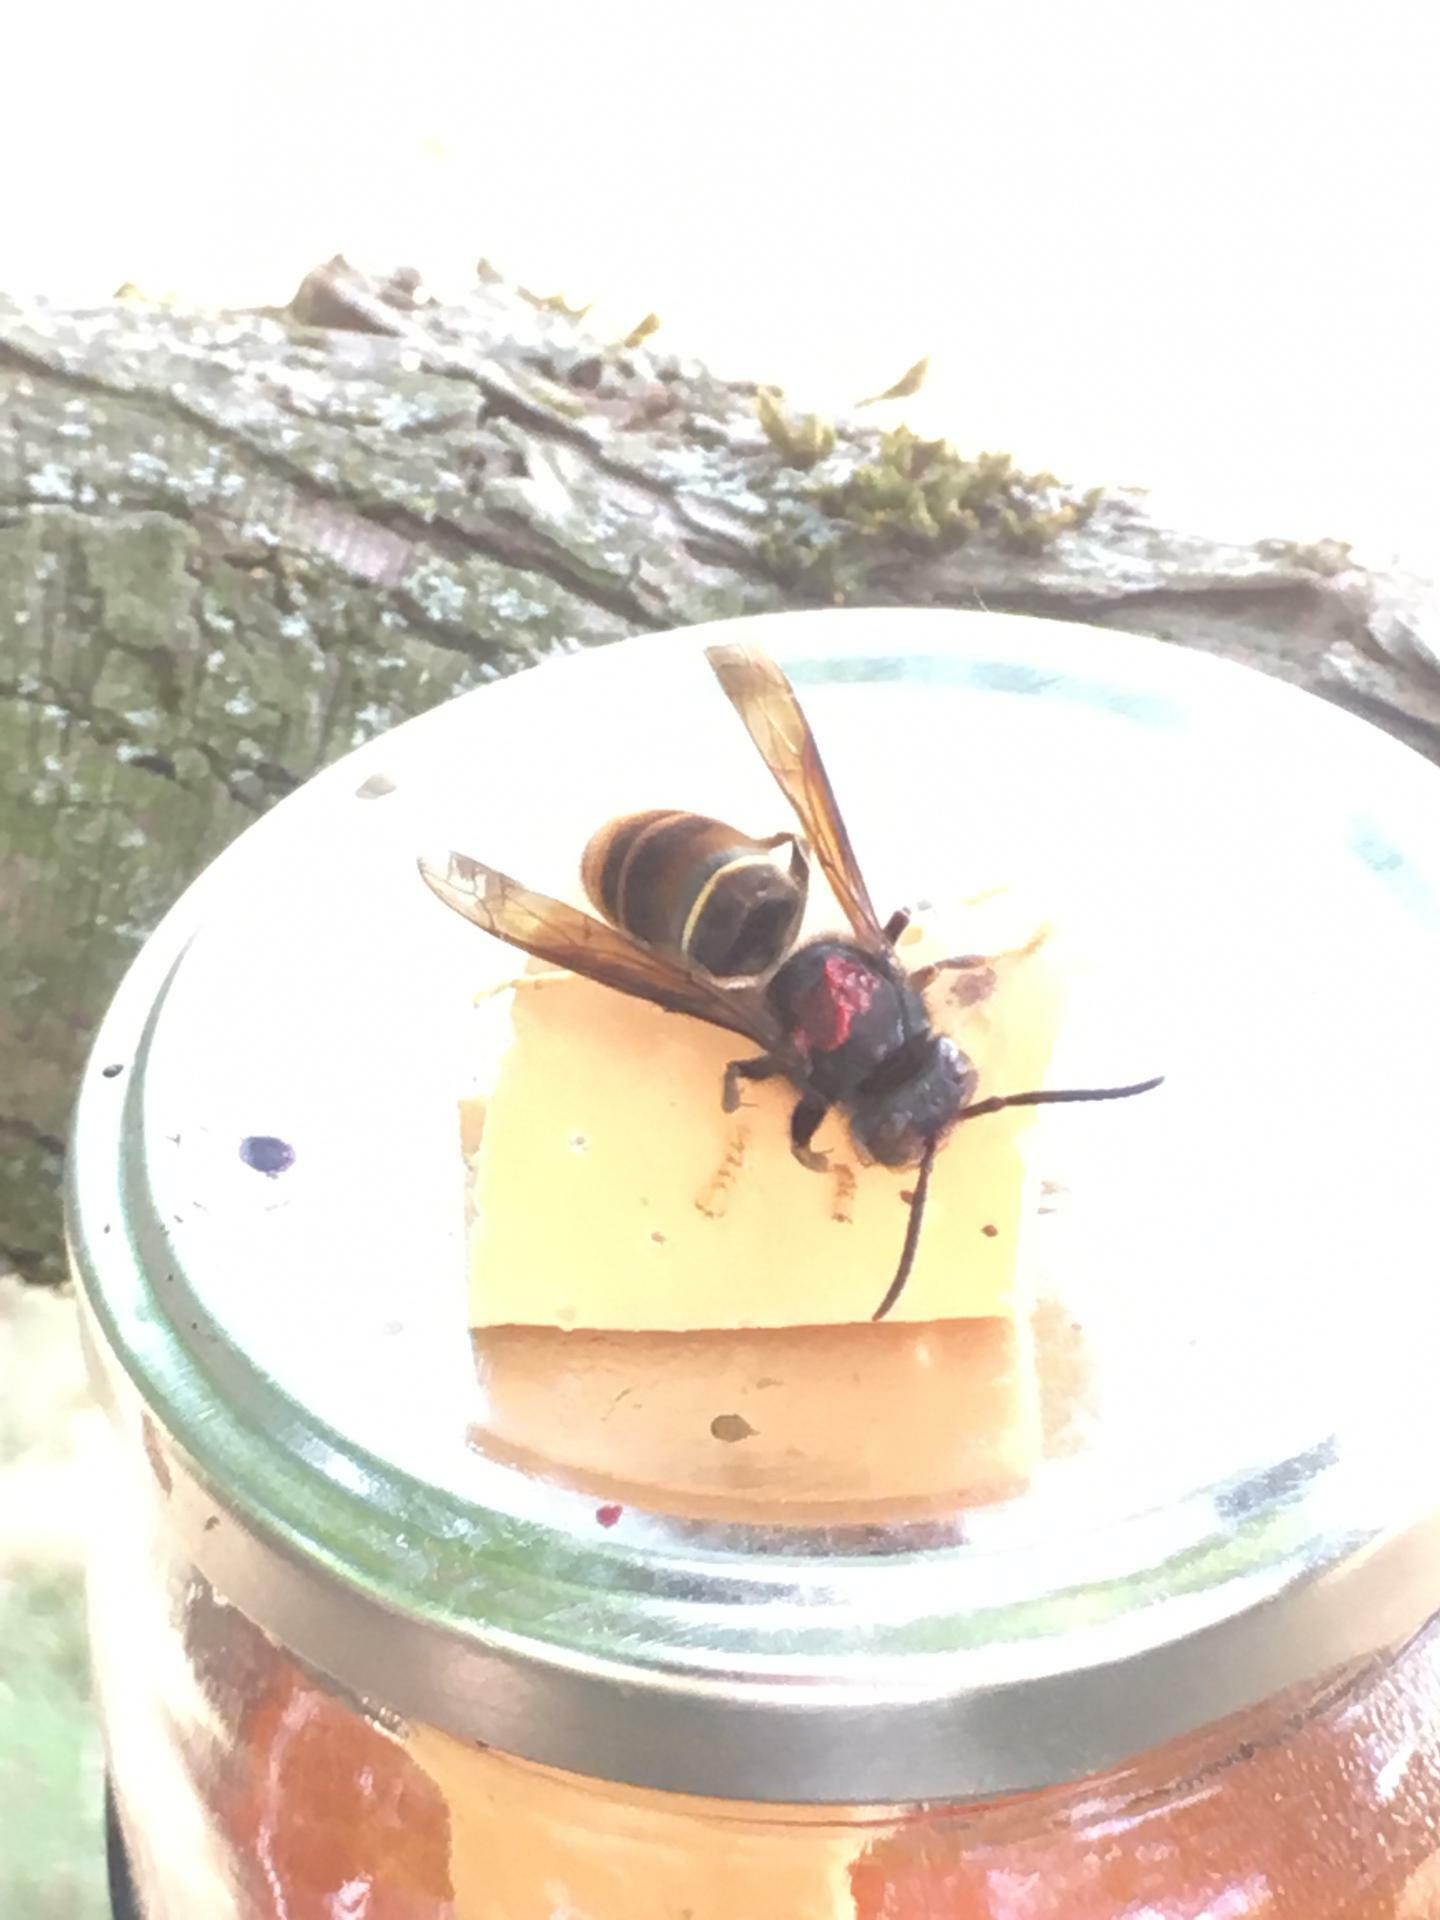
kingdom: Animalia
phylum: Arthropoda
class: Insecta
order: Hymenoptera
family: Vespidae
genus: Vespa
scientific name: Vespa velutina
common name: Asian hornet
